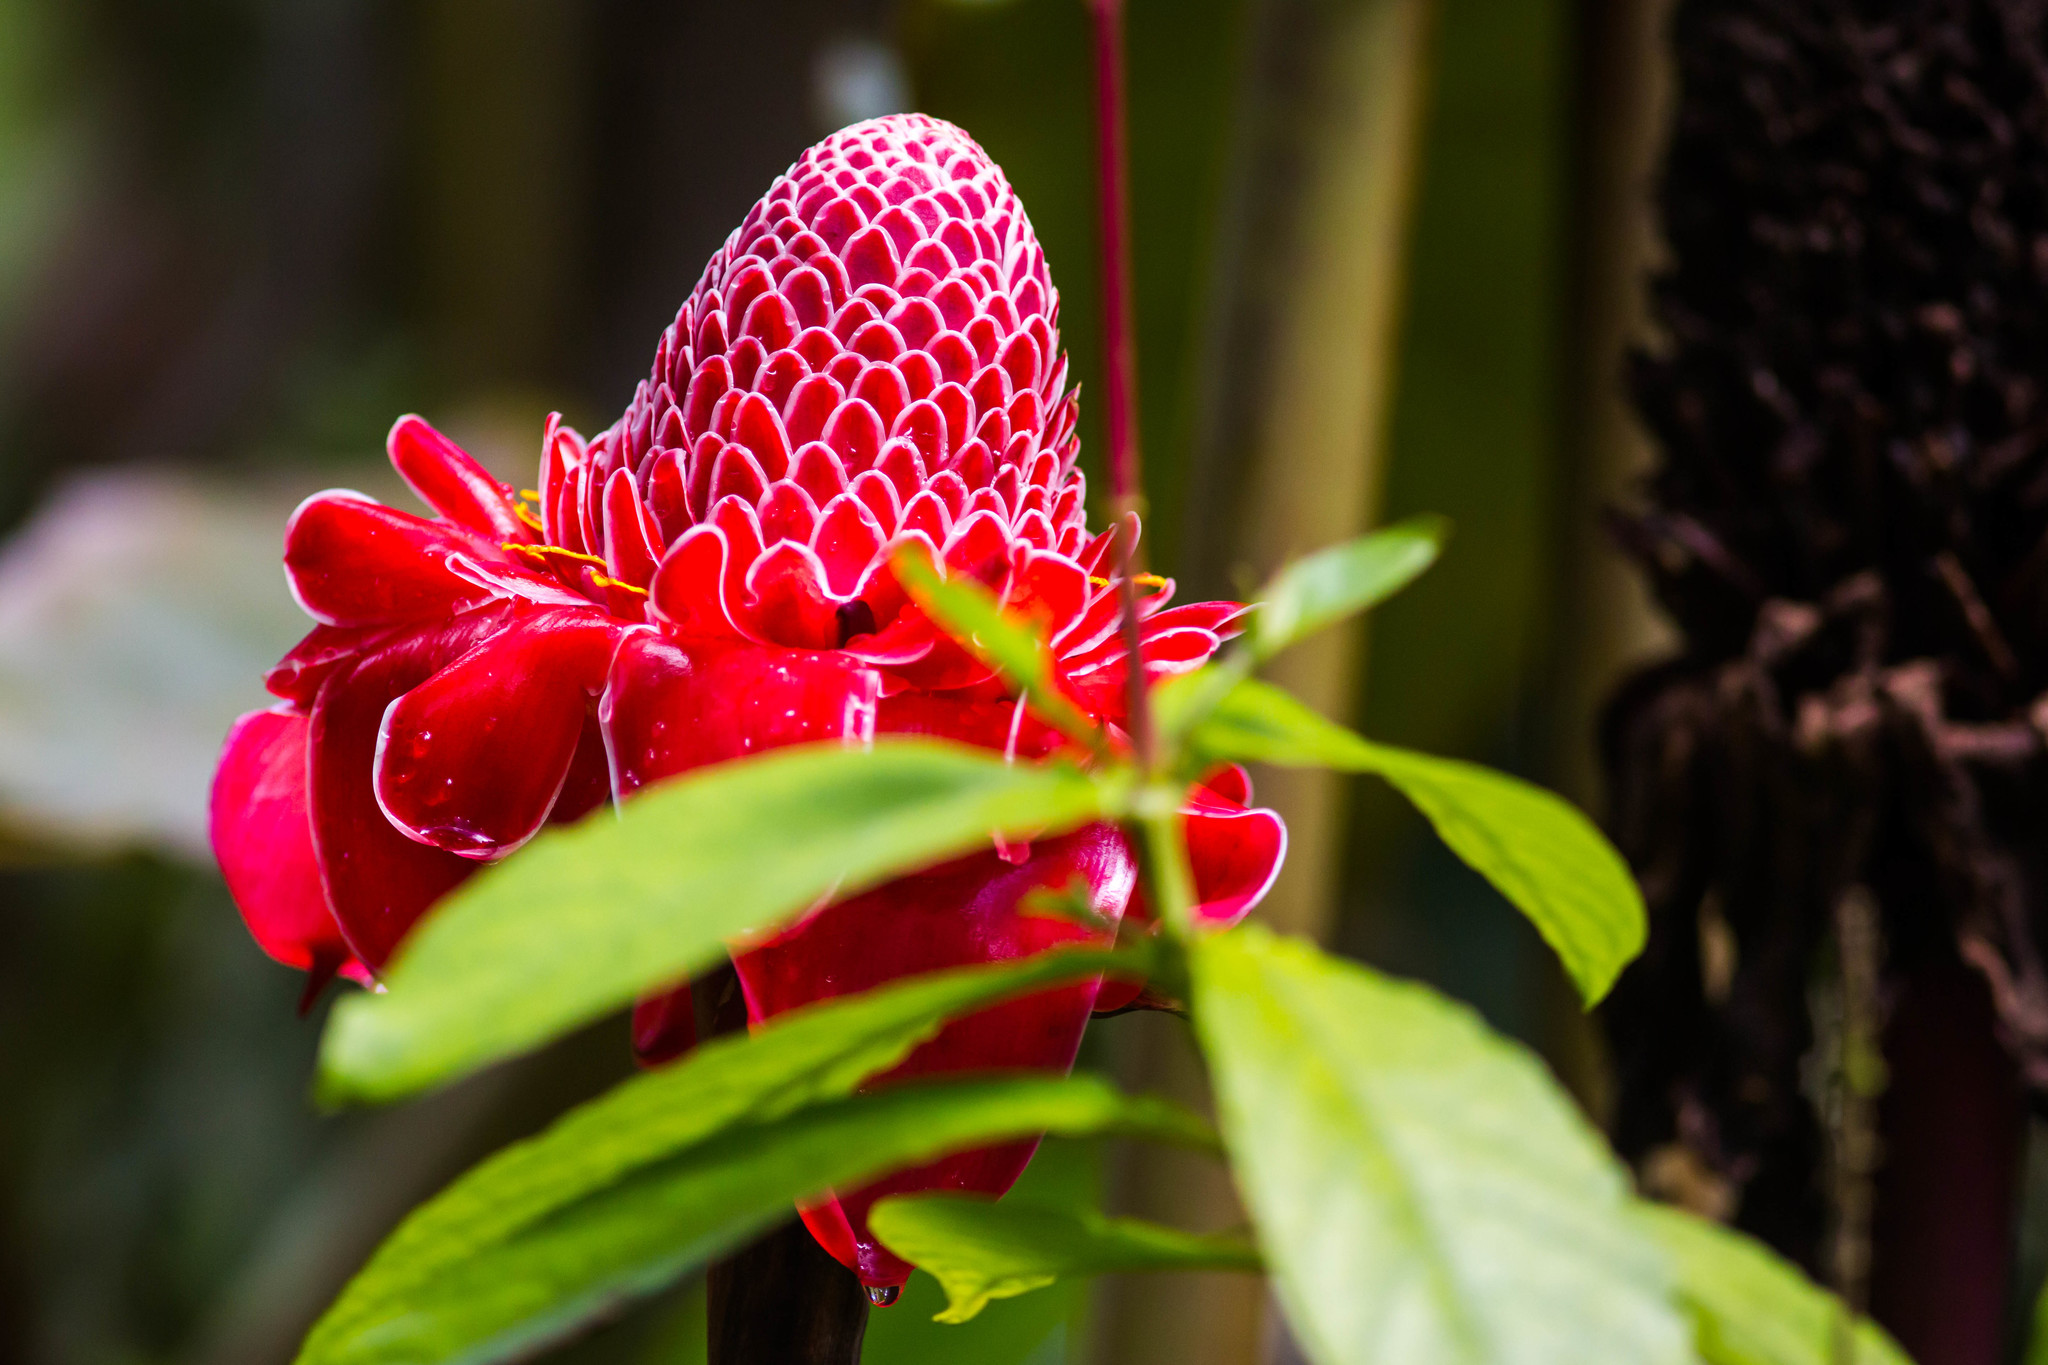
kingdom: Plantae
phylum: Tracheophyta
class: Liliopsida
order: Zingiberales
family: Zingiberaceae
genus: Etlingera
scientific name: Etlingera elatior
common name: Philippine waxflower
